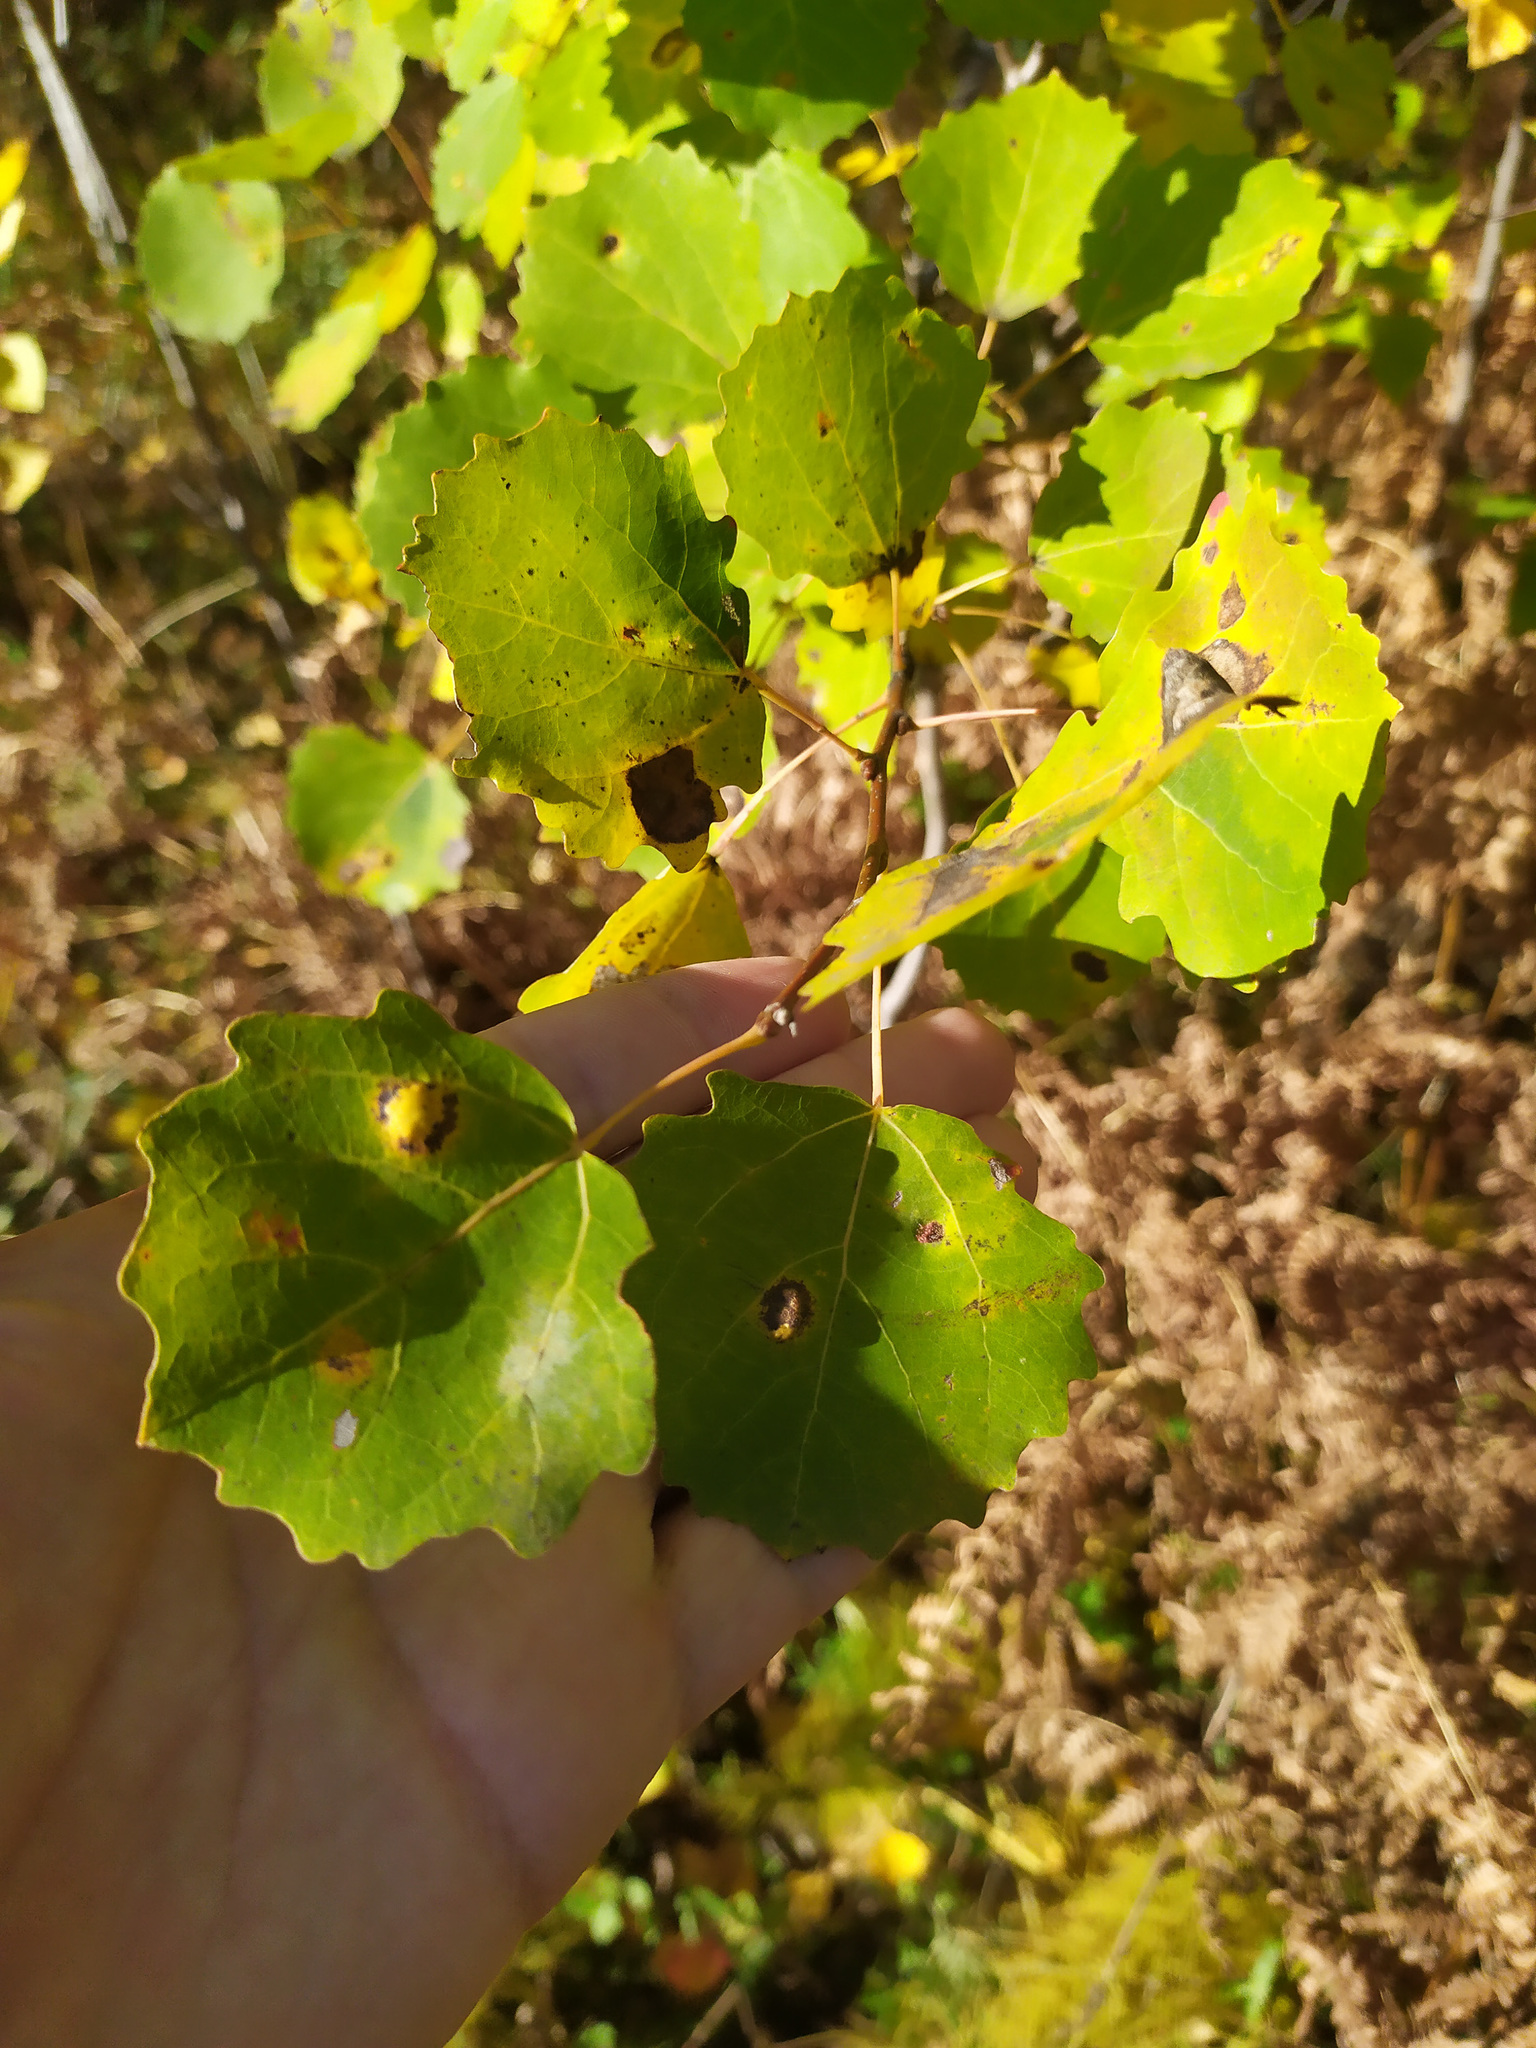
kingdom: Plantae
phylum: Tracheophyta
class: Magnoliopsida
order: Malpighiales
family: Salicaceae
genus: Populus
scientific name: Populus tremula
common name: European aspen
